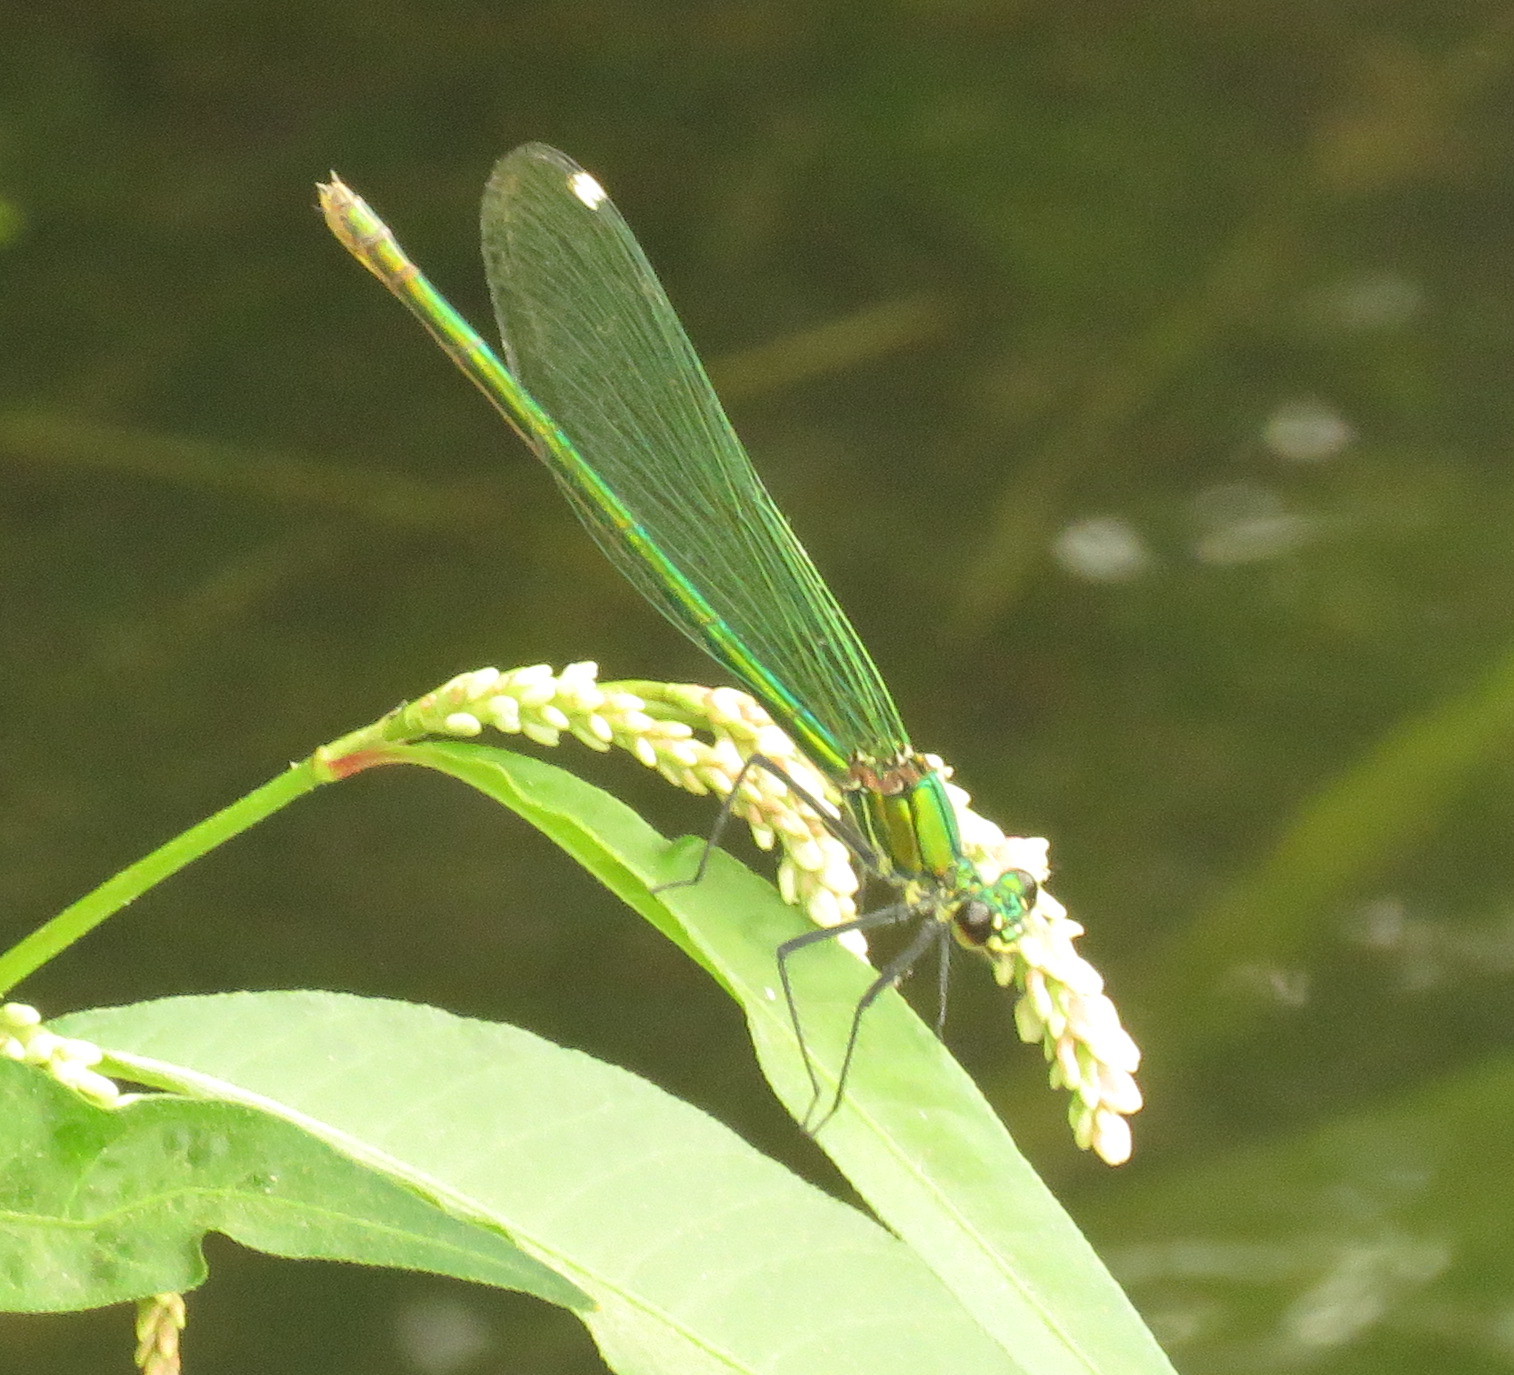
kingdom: Animalia
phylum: Arthropoda
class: Insecta
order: Odonata
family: Calopterygidae
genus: Calopteryx
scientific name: Calopteryx splendens
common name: Banded demoiselle
